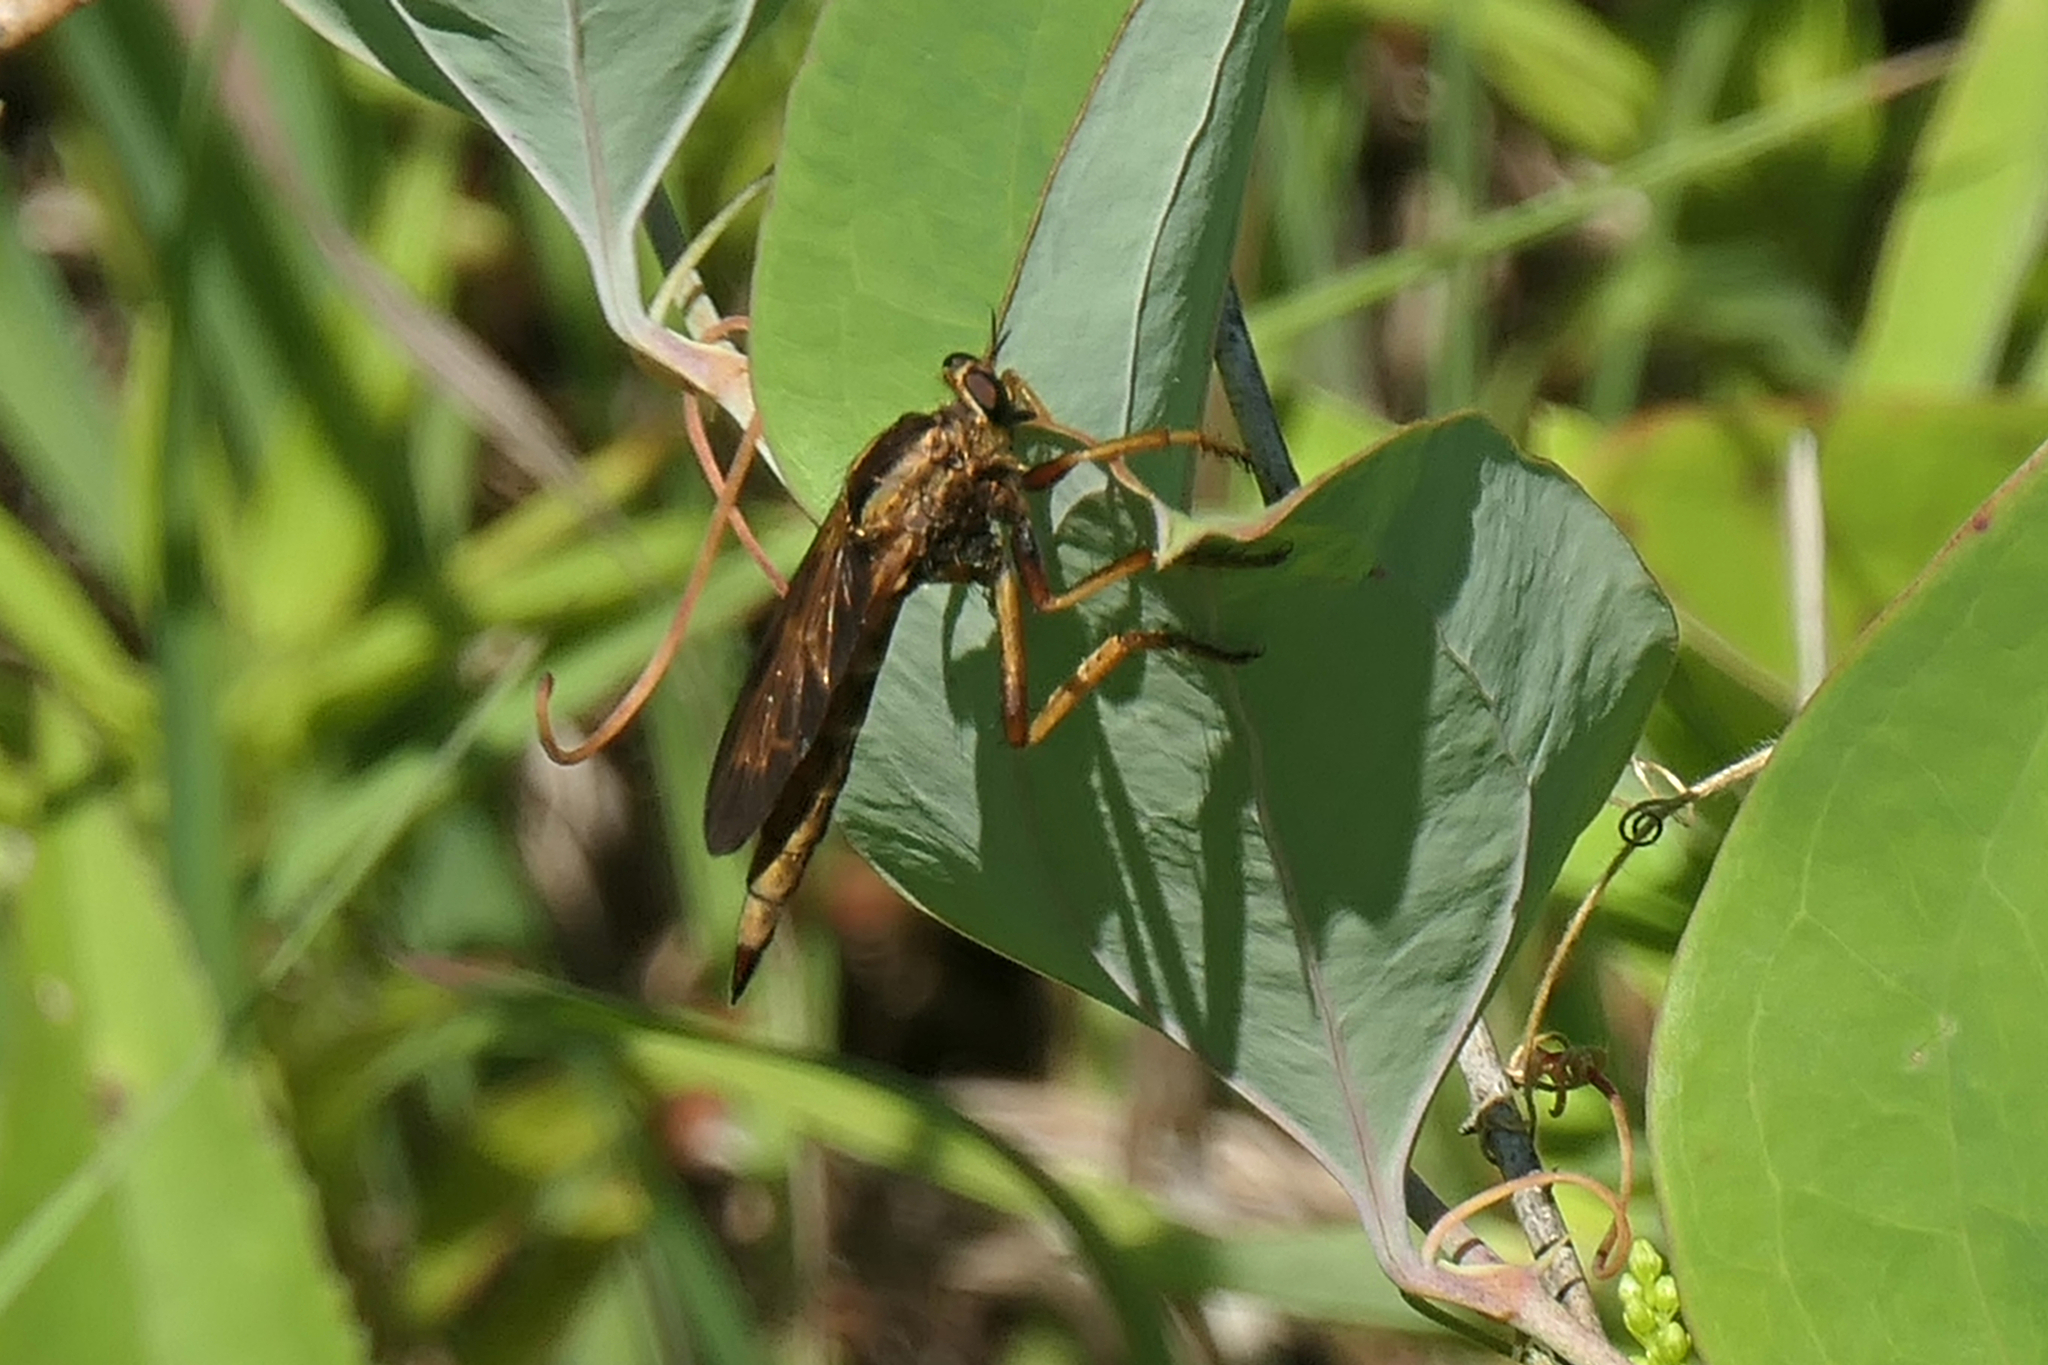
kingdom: Animalia
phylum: Arthropoda
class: Insecta
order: Diptera
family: Asilidae
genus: Asilus
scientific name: Asilus sericeus
